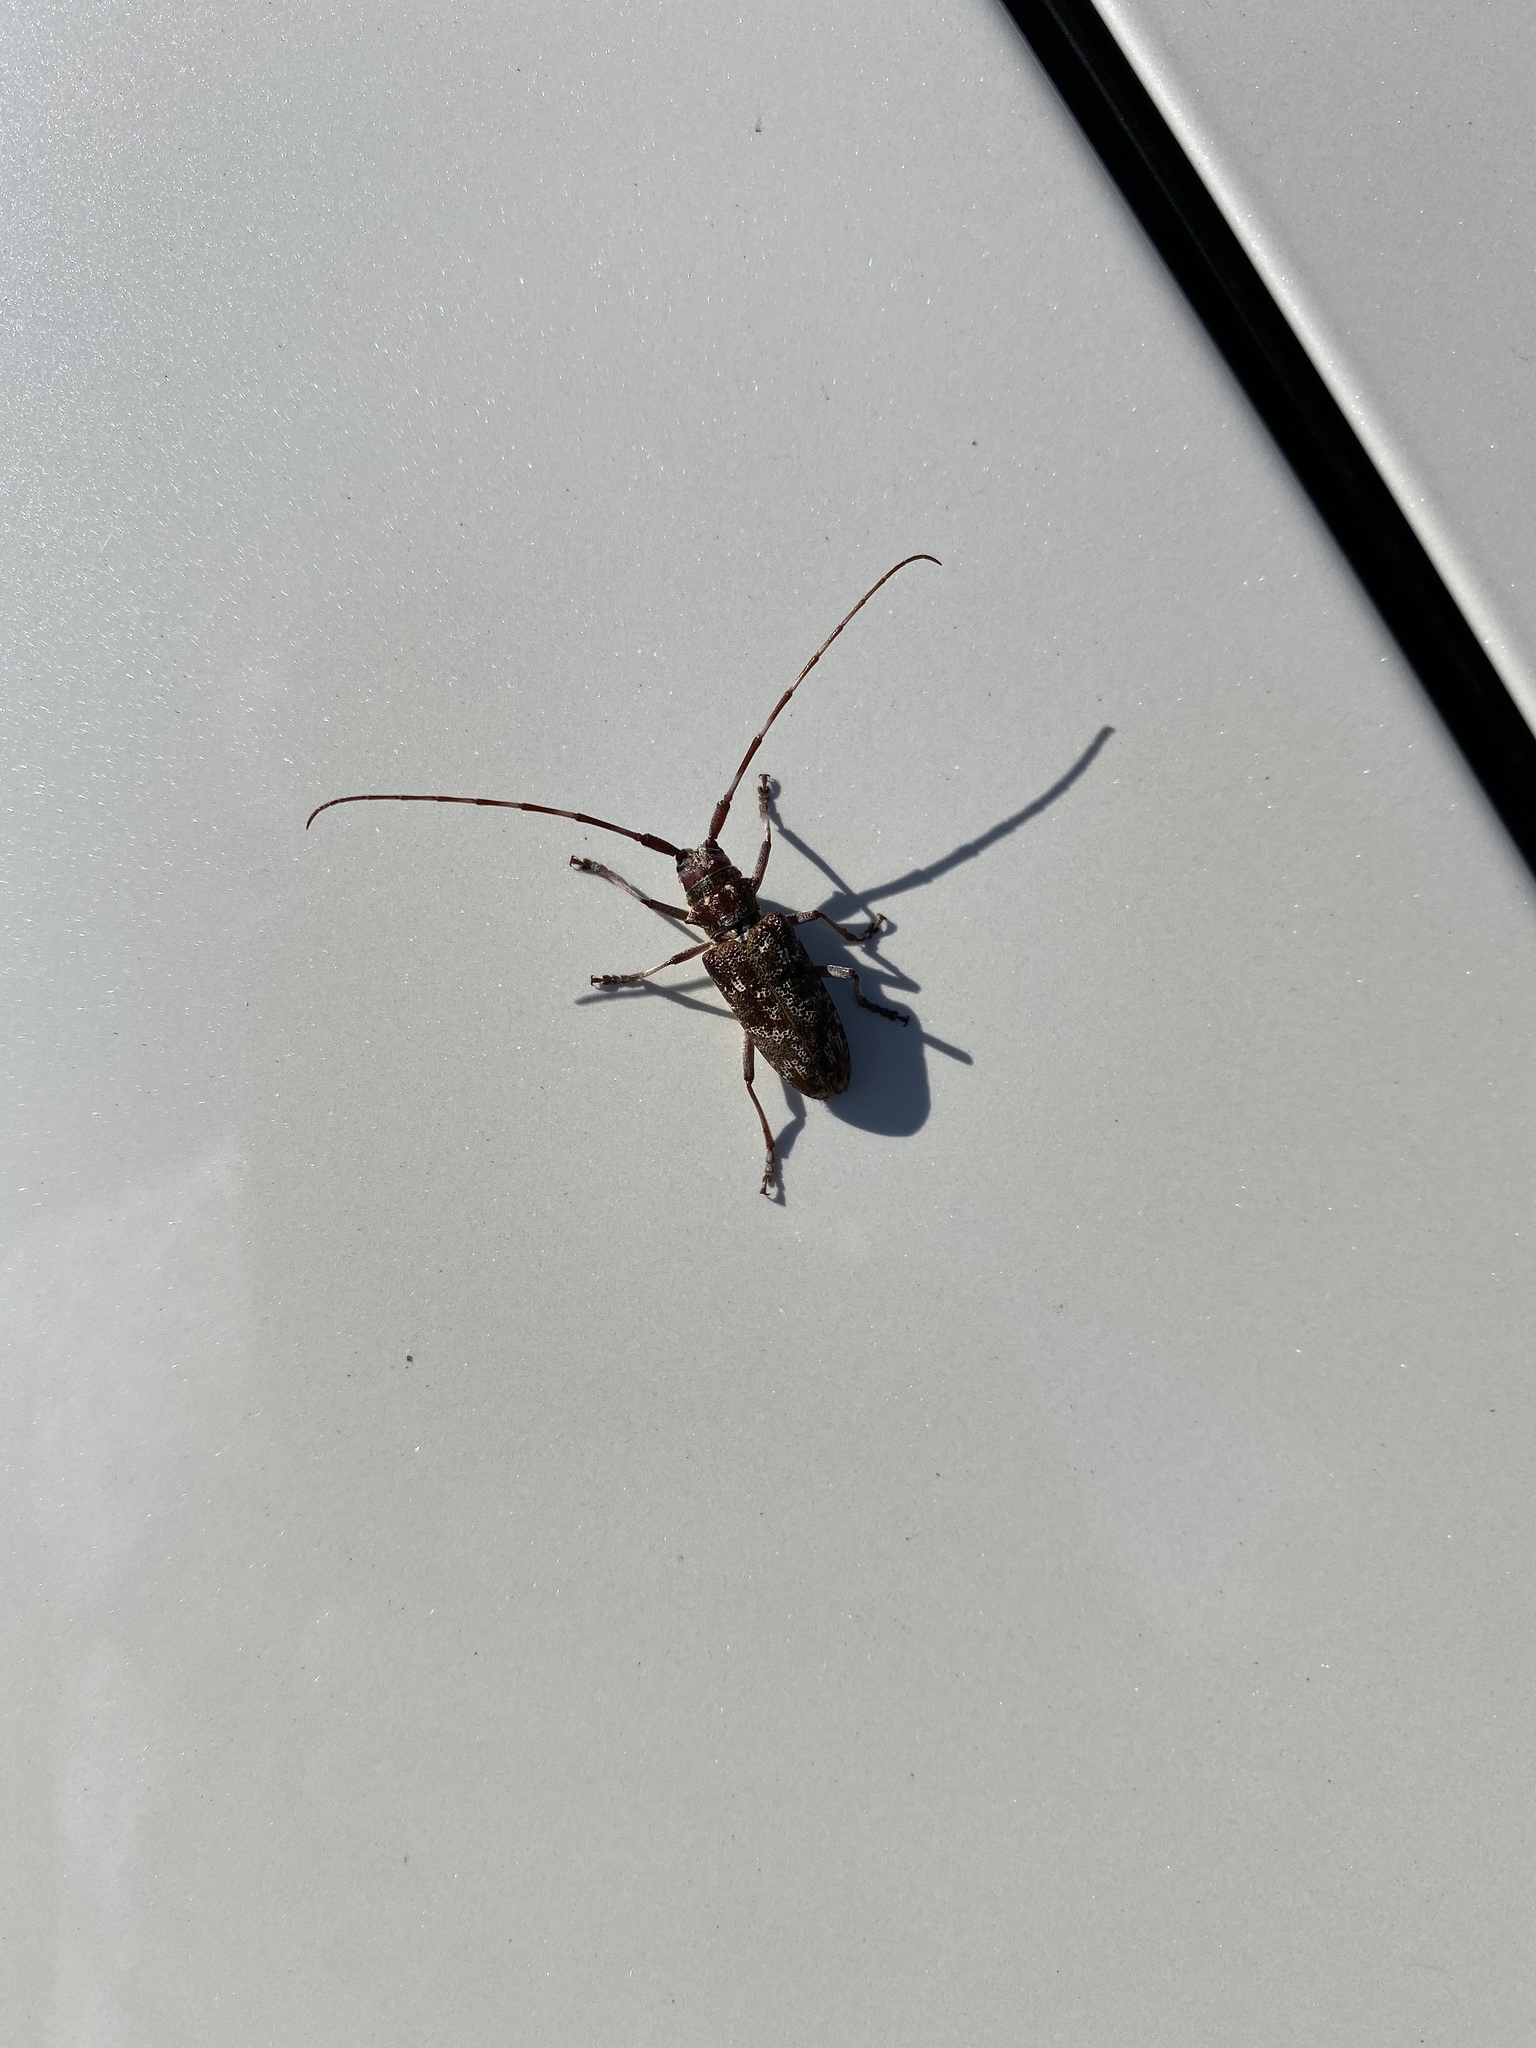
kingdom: Animalia
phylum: Arthropoda
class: Insecta
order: Coleoptera
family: Cerambycidae
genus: Monochamus
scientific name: Monochamus obtusus
